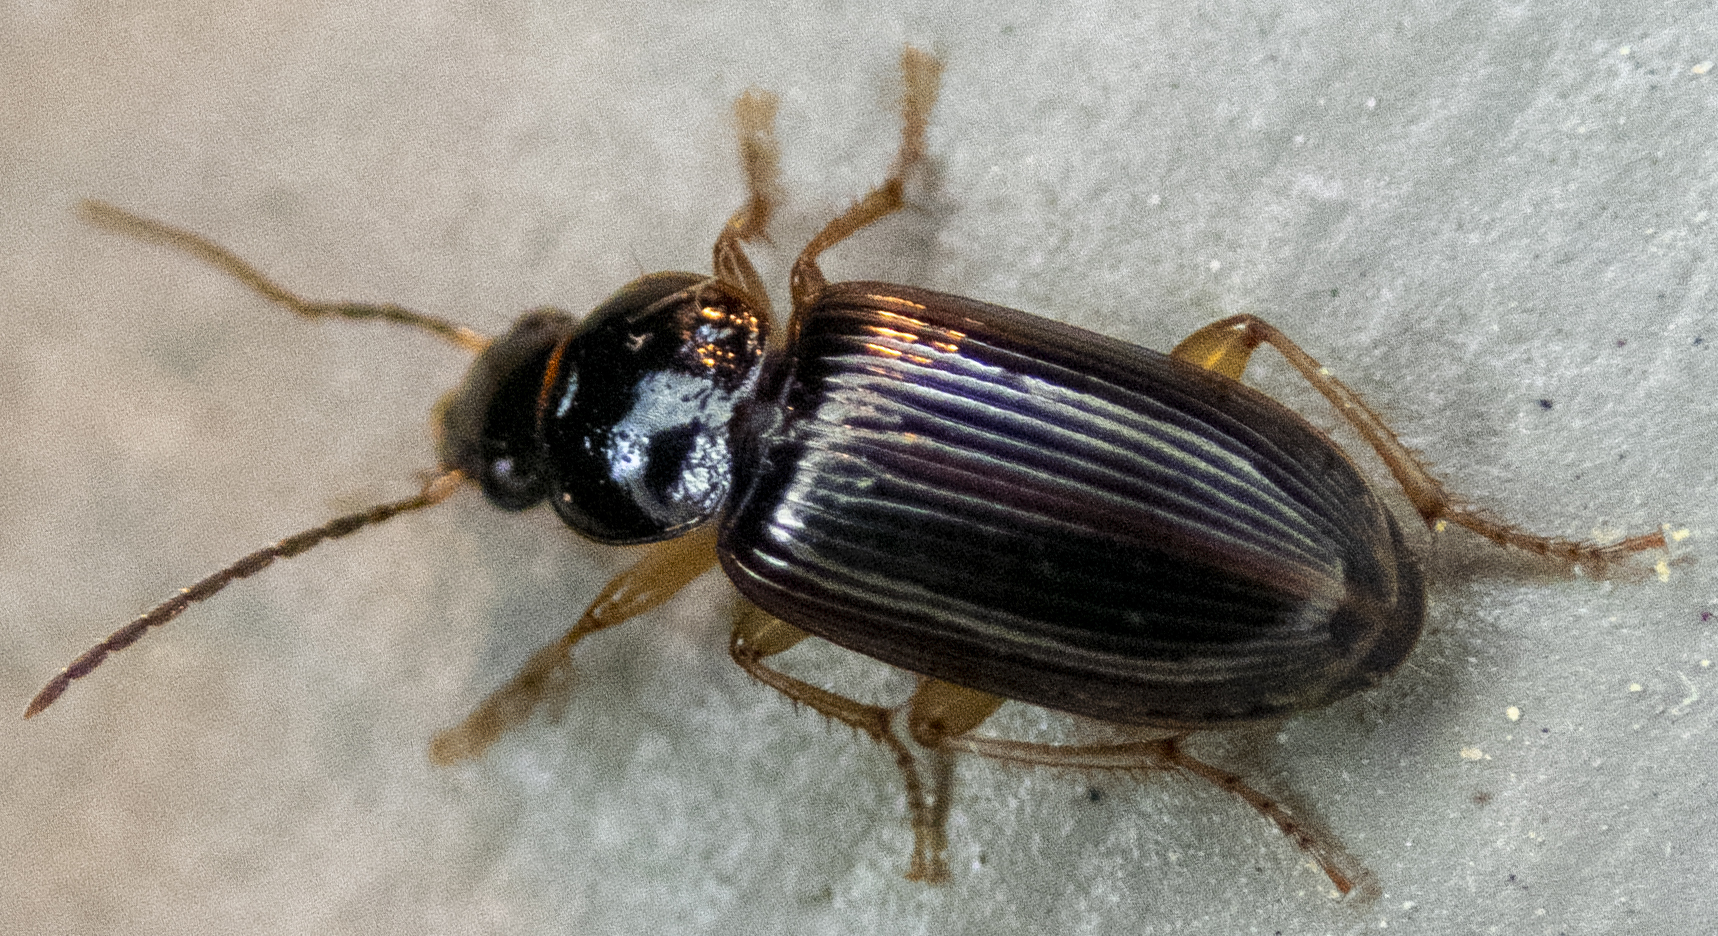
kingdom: Animalia
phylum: Arthropoda
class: Insecta
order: Coleoptera
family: Carabidae
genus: Stenolophus
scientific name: Stenolophus ochropezus
